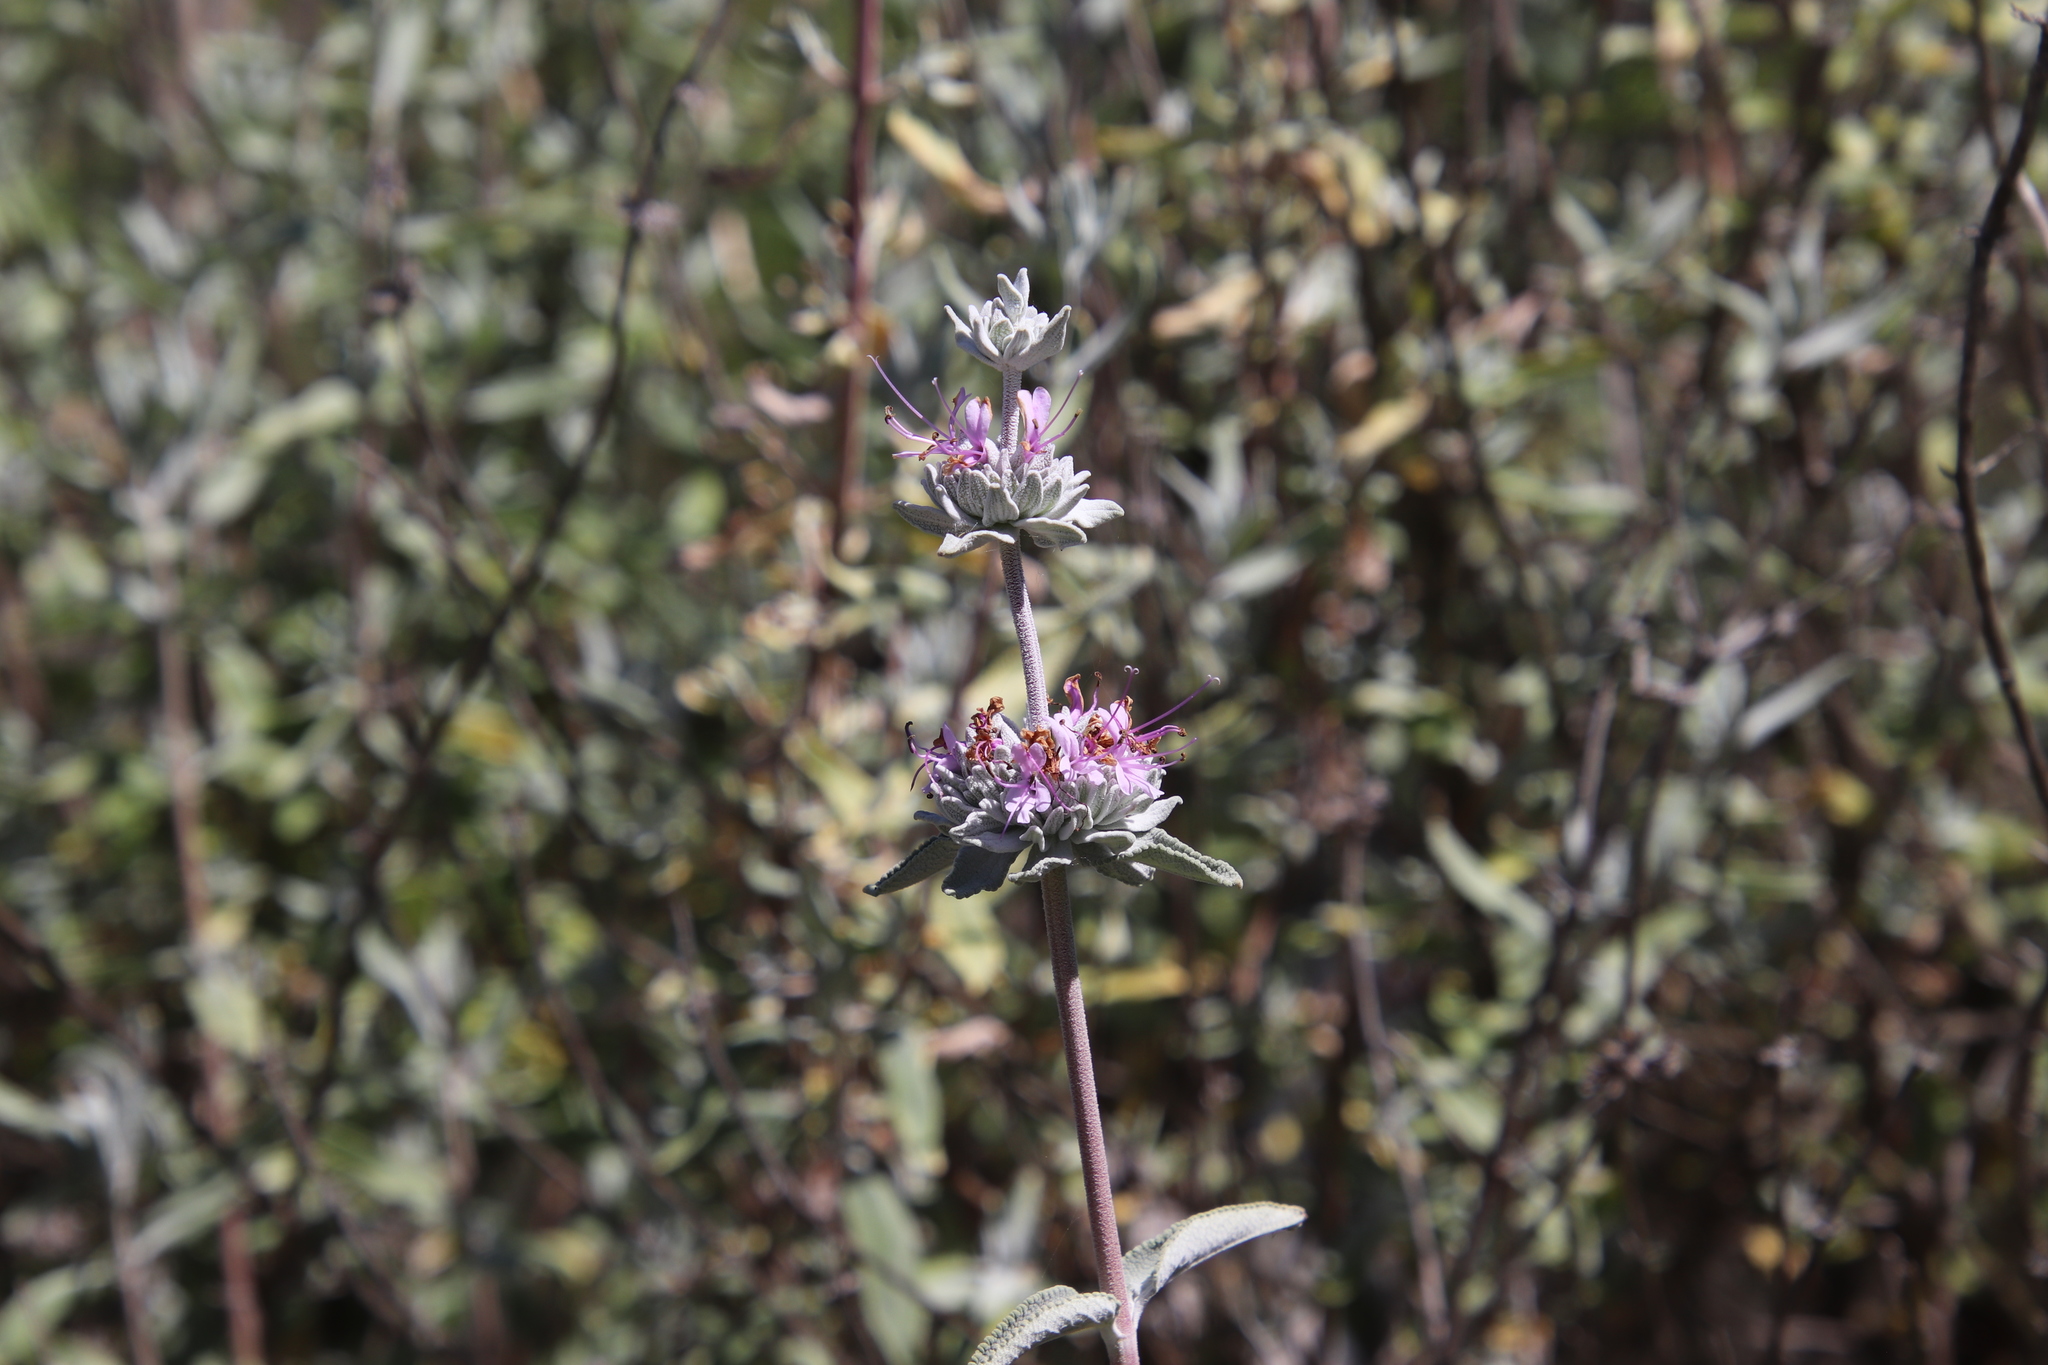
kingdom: Plantae
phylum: Tracheophyta
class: Magnoliopsida
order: Lamiales
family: Lamiaceae
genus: Salvia
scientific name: Salvia leucophylla
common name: Purple sage
